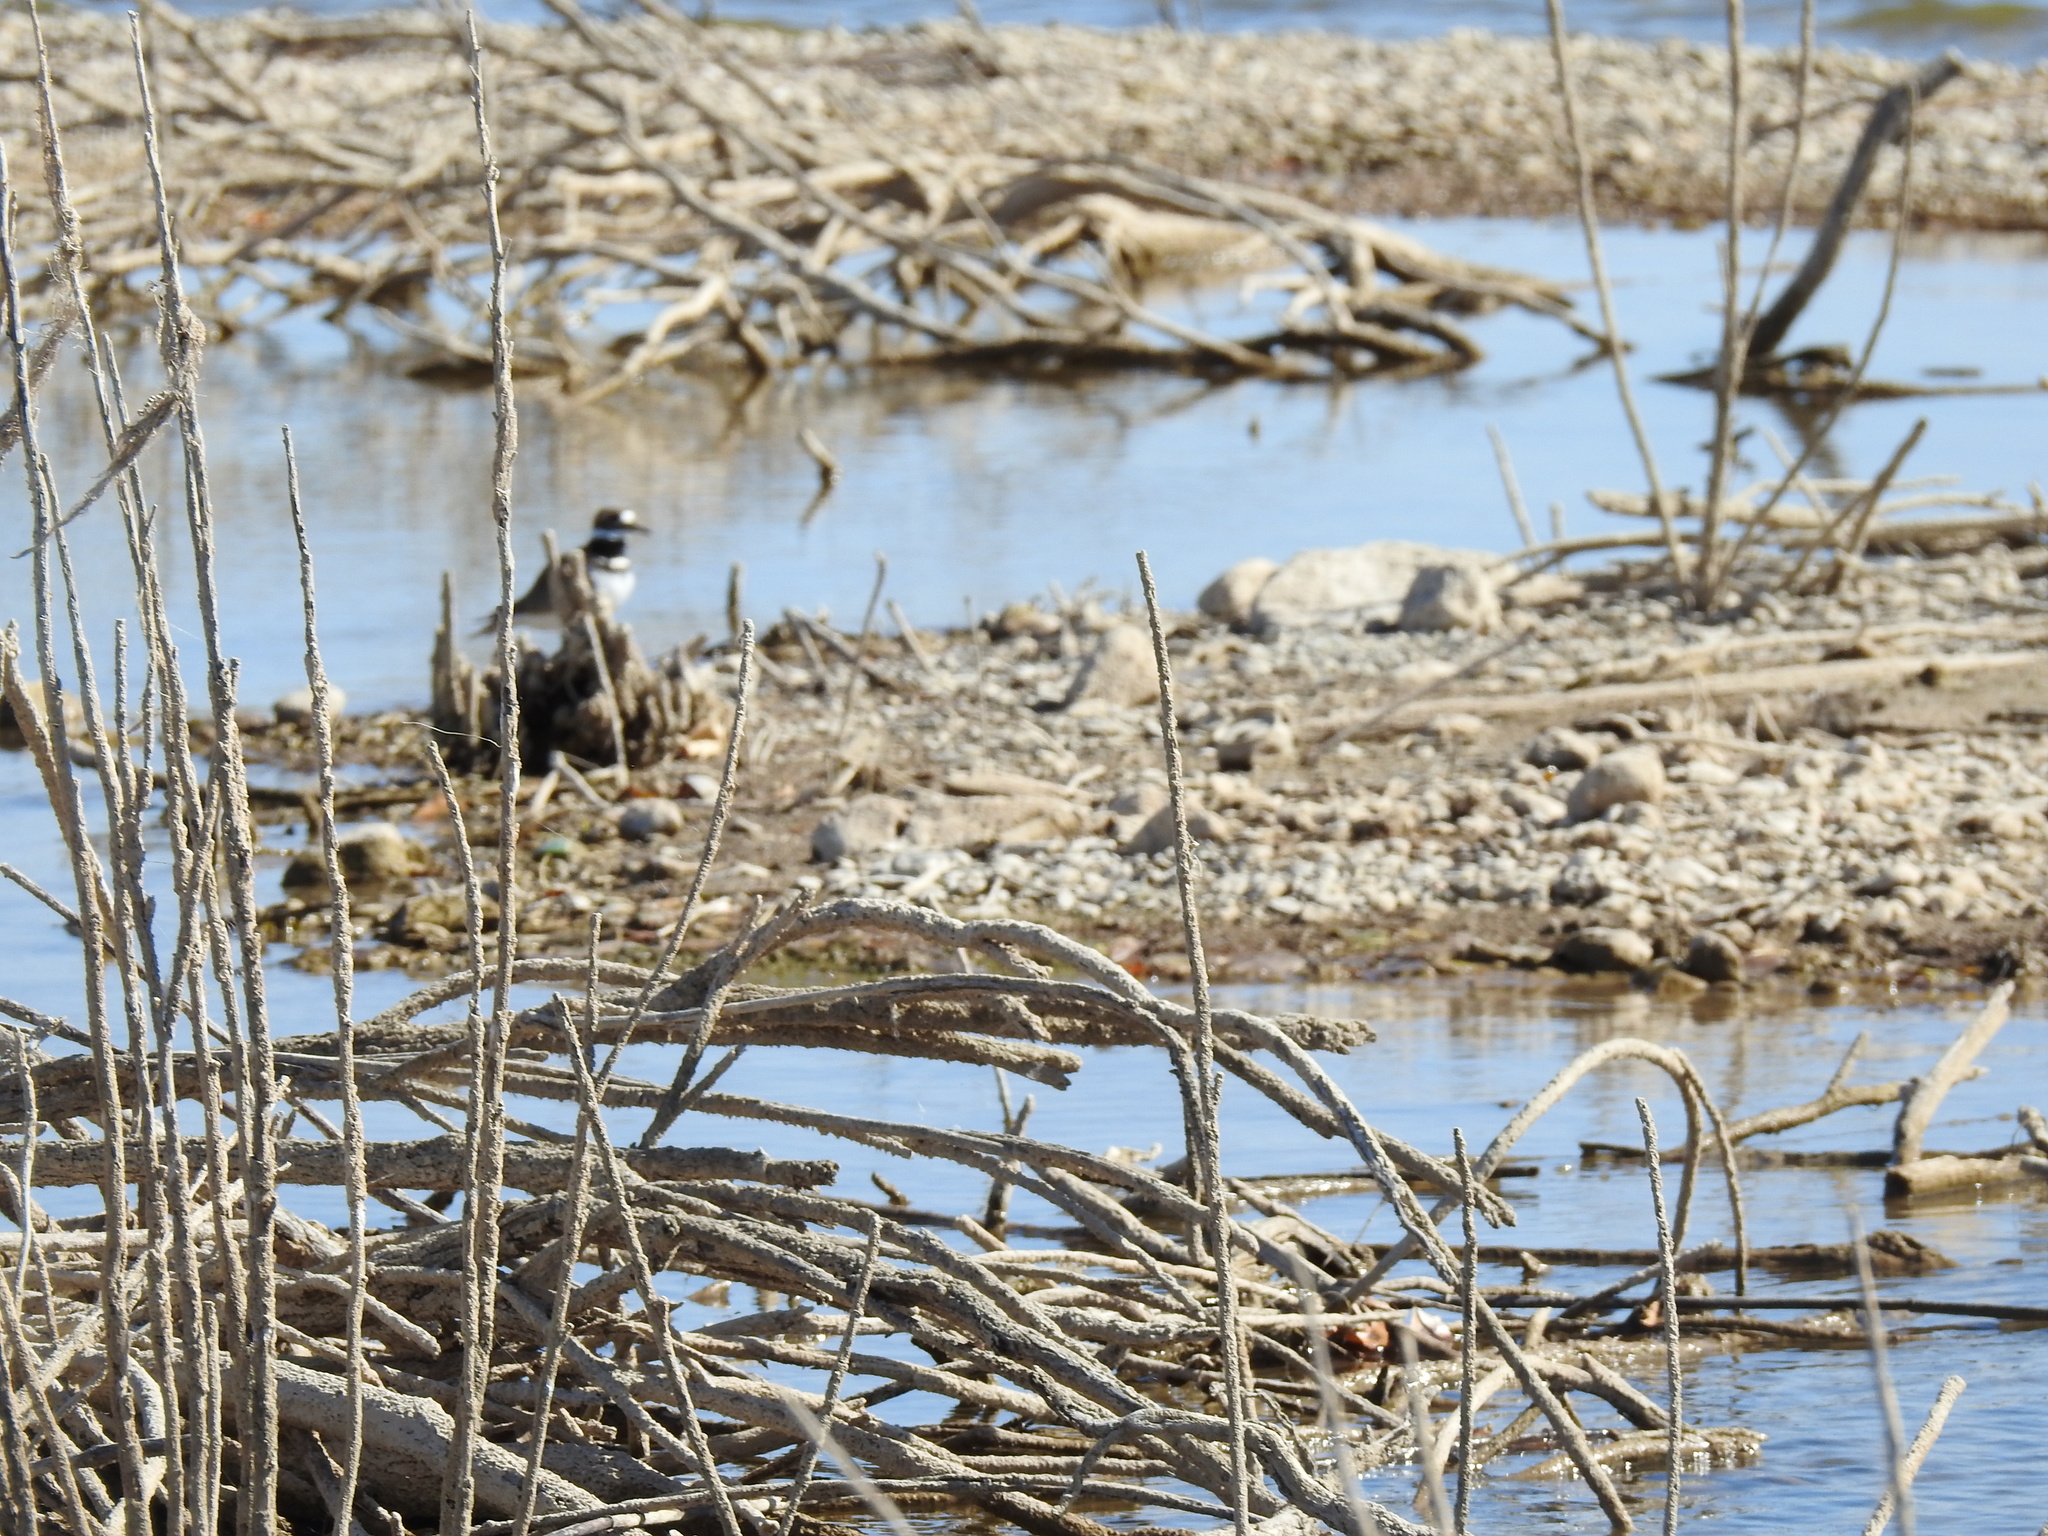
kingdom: Animalia
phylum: Chordata
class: Aves
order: Charadriiformes
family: Charadriidae
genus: Charadrius
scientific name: Charadrius vociferus
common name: Killdeer
